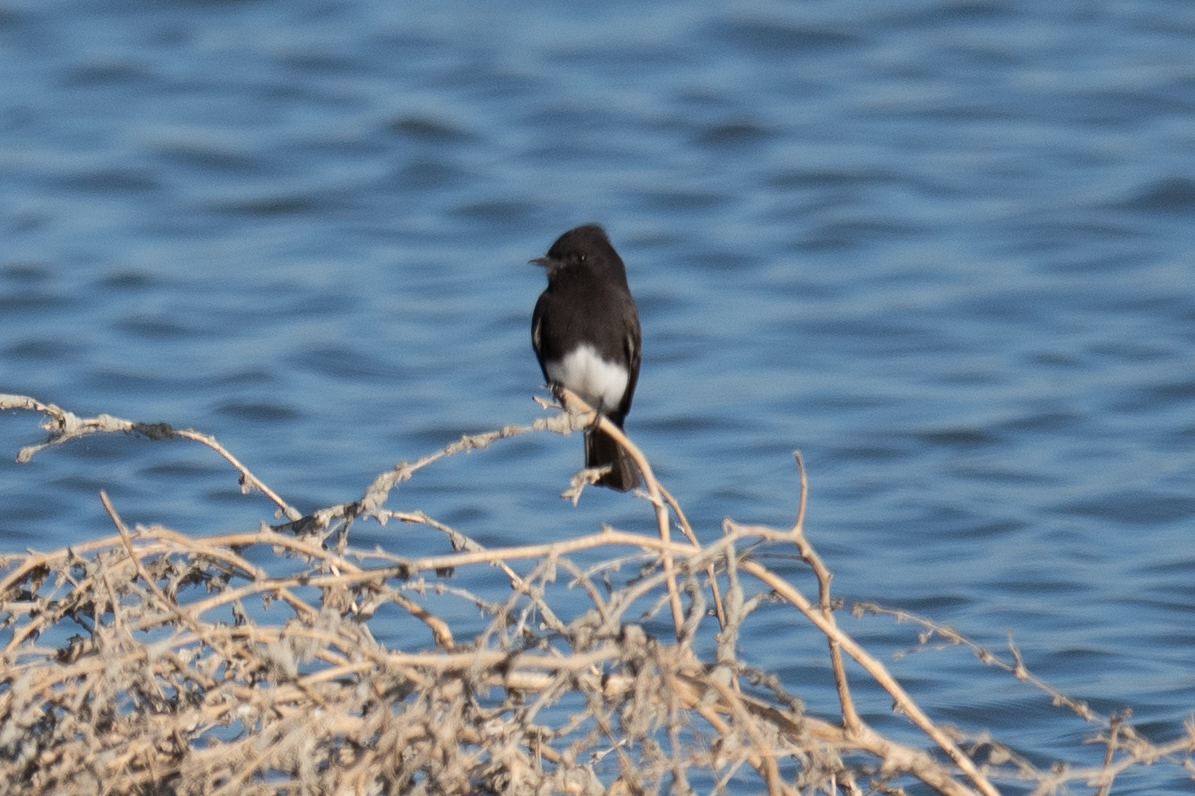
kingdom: Animalia
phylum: Chordata
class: Aves
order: Passeriformes
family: Tyrannidae
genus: Sayornis
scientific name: Sayornis nigricans
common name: Black phoebe
